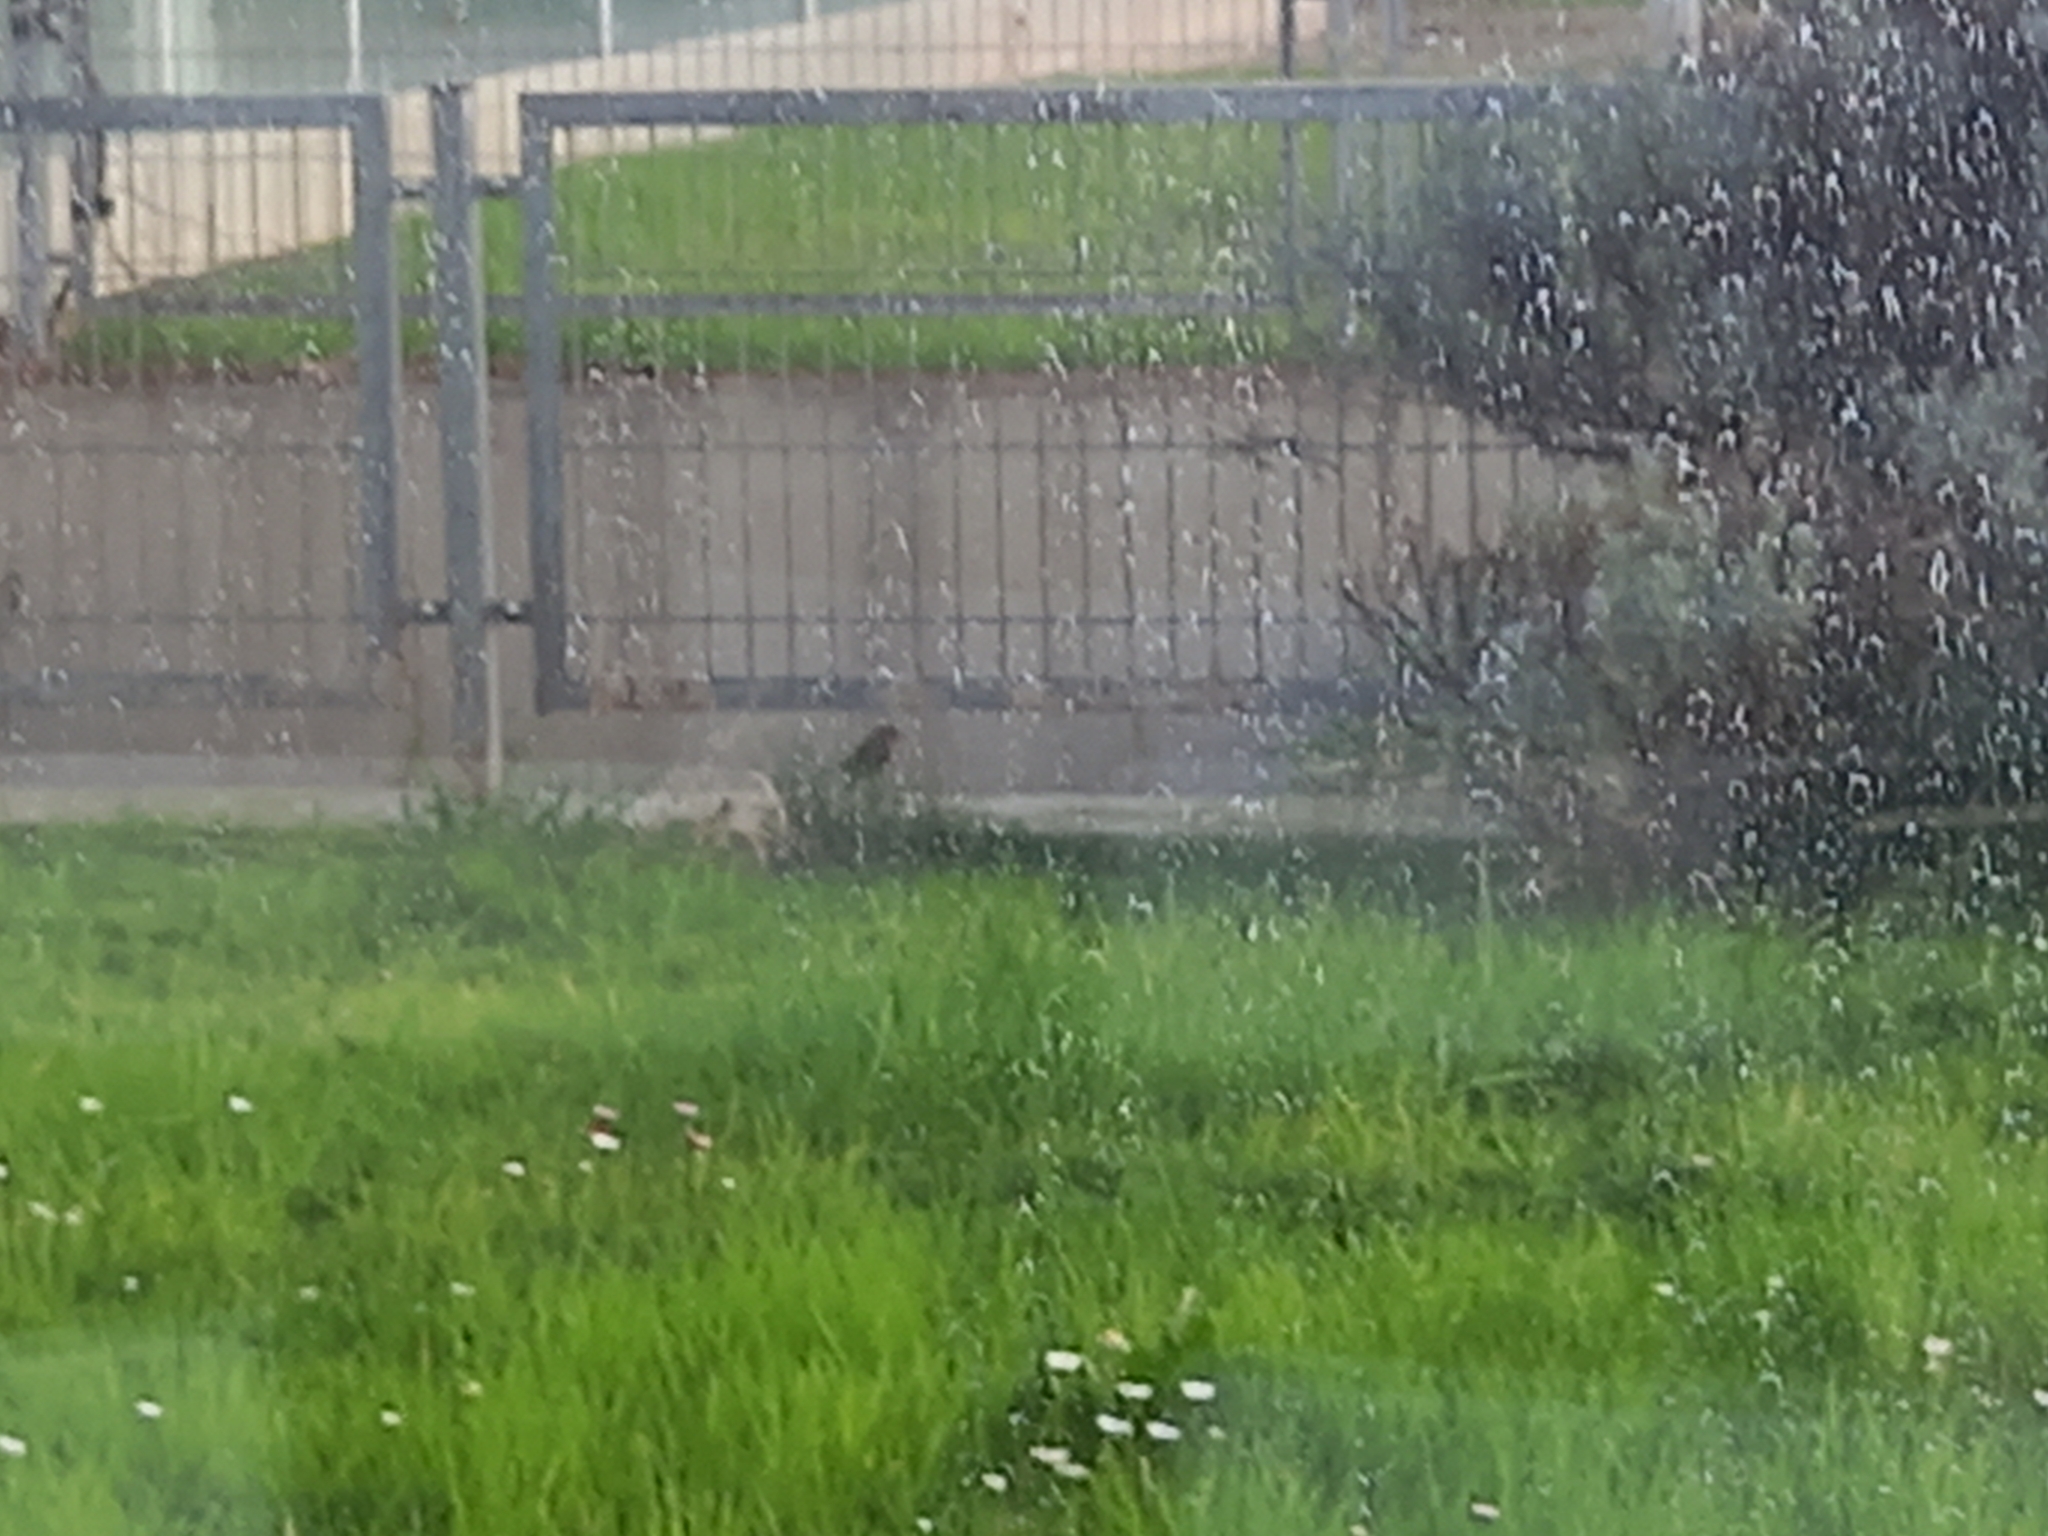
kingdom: Animalia
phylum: Chordata
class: Aves
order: Passeriformes
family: Muscicapidae
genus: Erithacus
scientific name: Erithacus rubecula
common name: European robin
